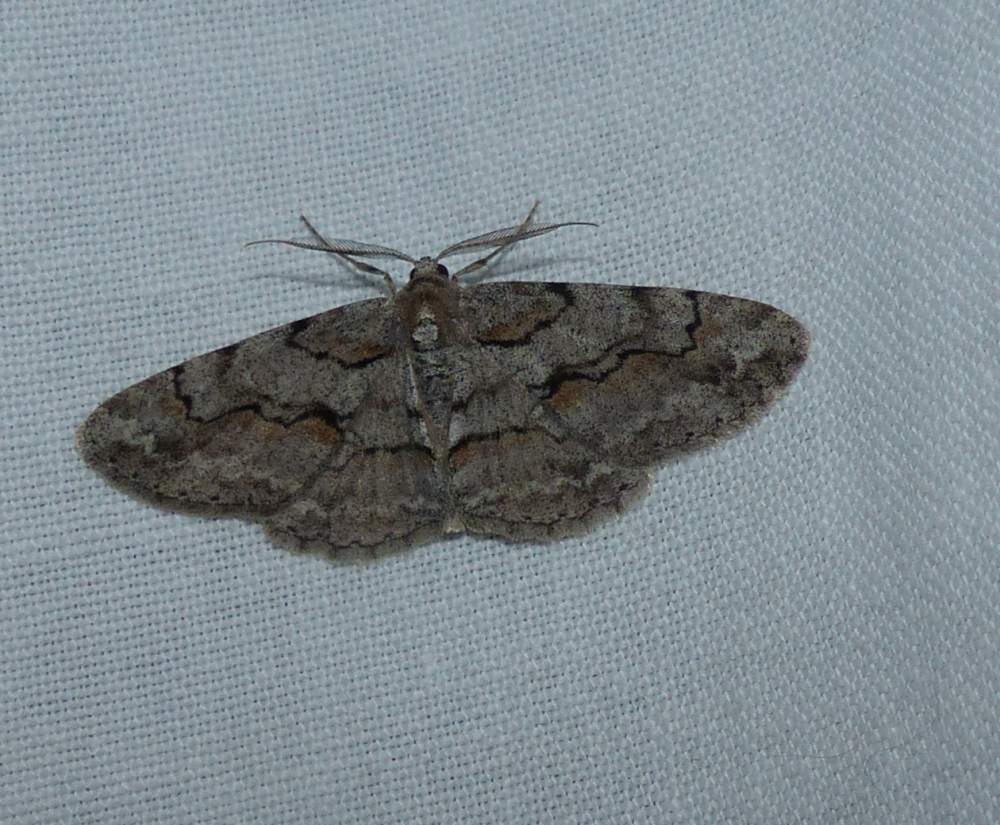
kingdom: Animalia
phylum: Arthropoda
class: Insecta
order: Lepidoptera
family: Geometridae
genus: Iridopsis
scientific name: Iridopsis vellivolata
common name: Large purplish gray
